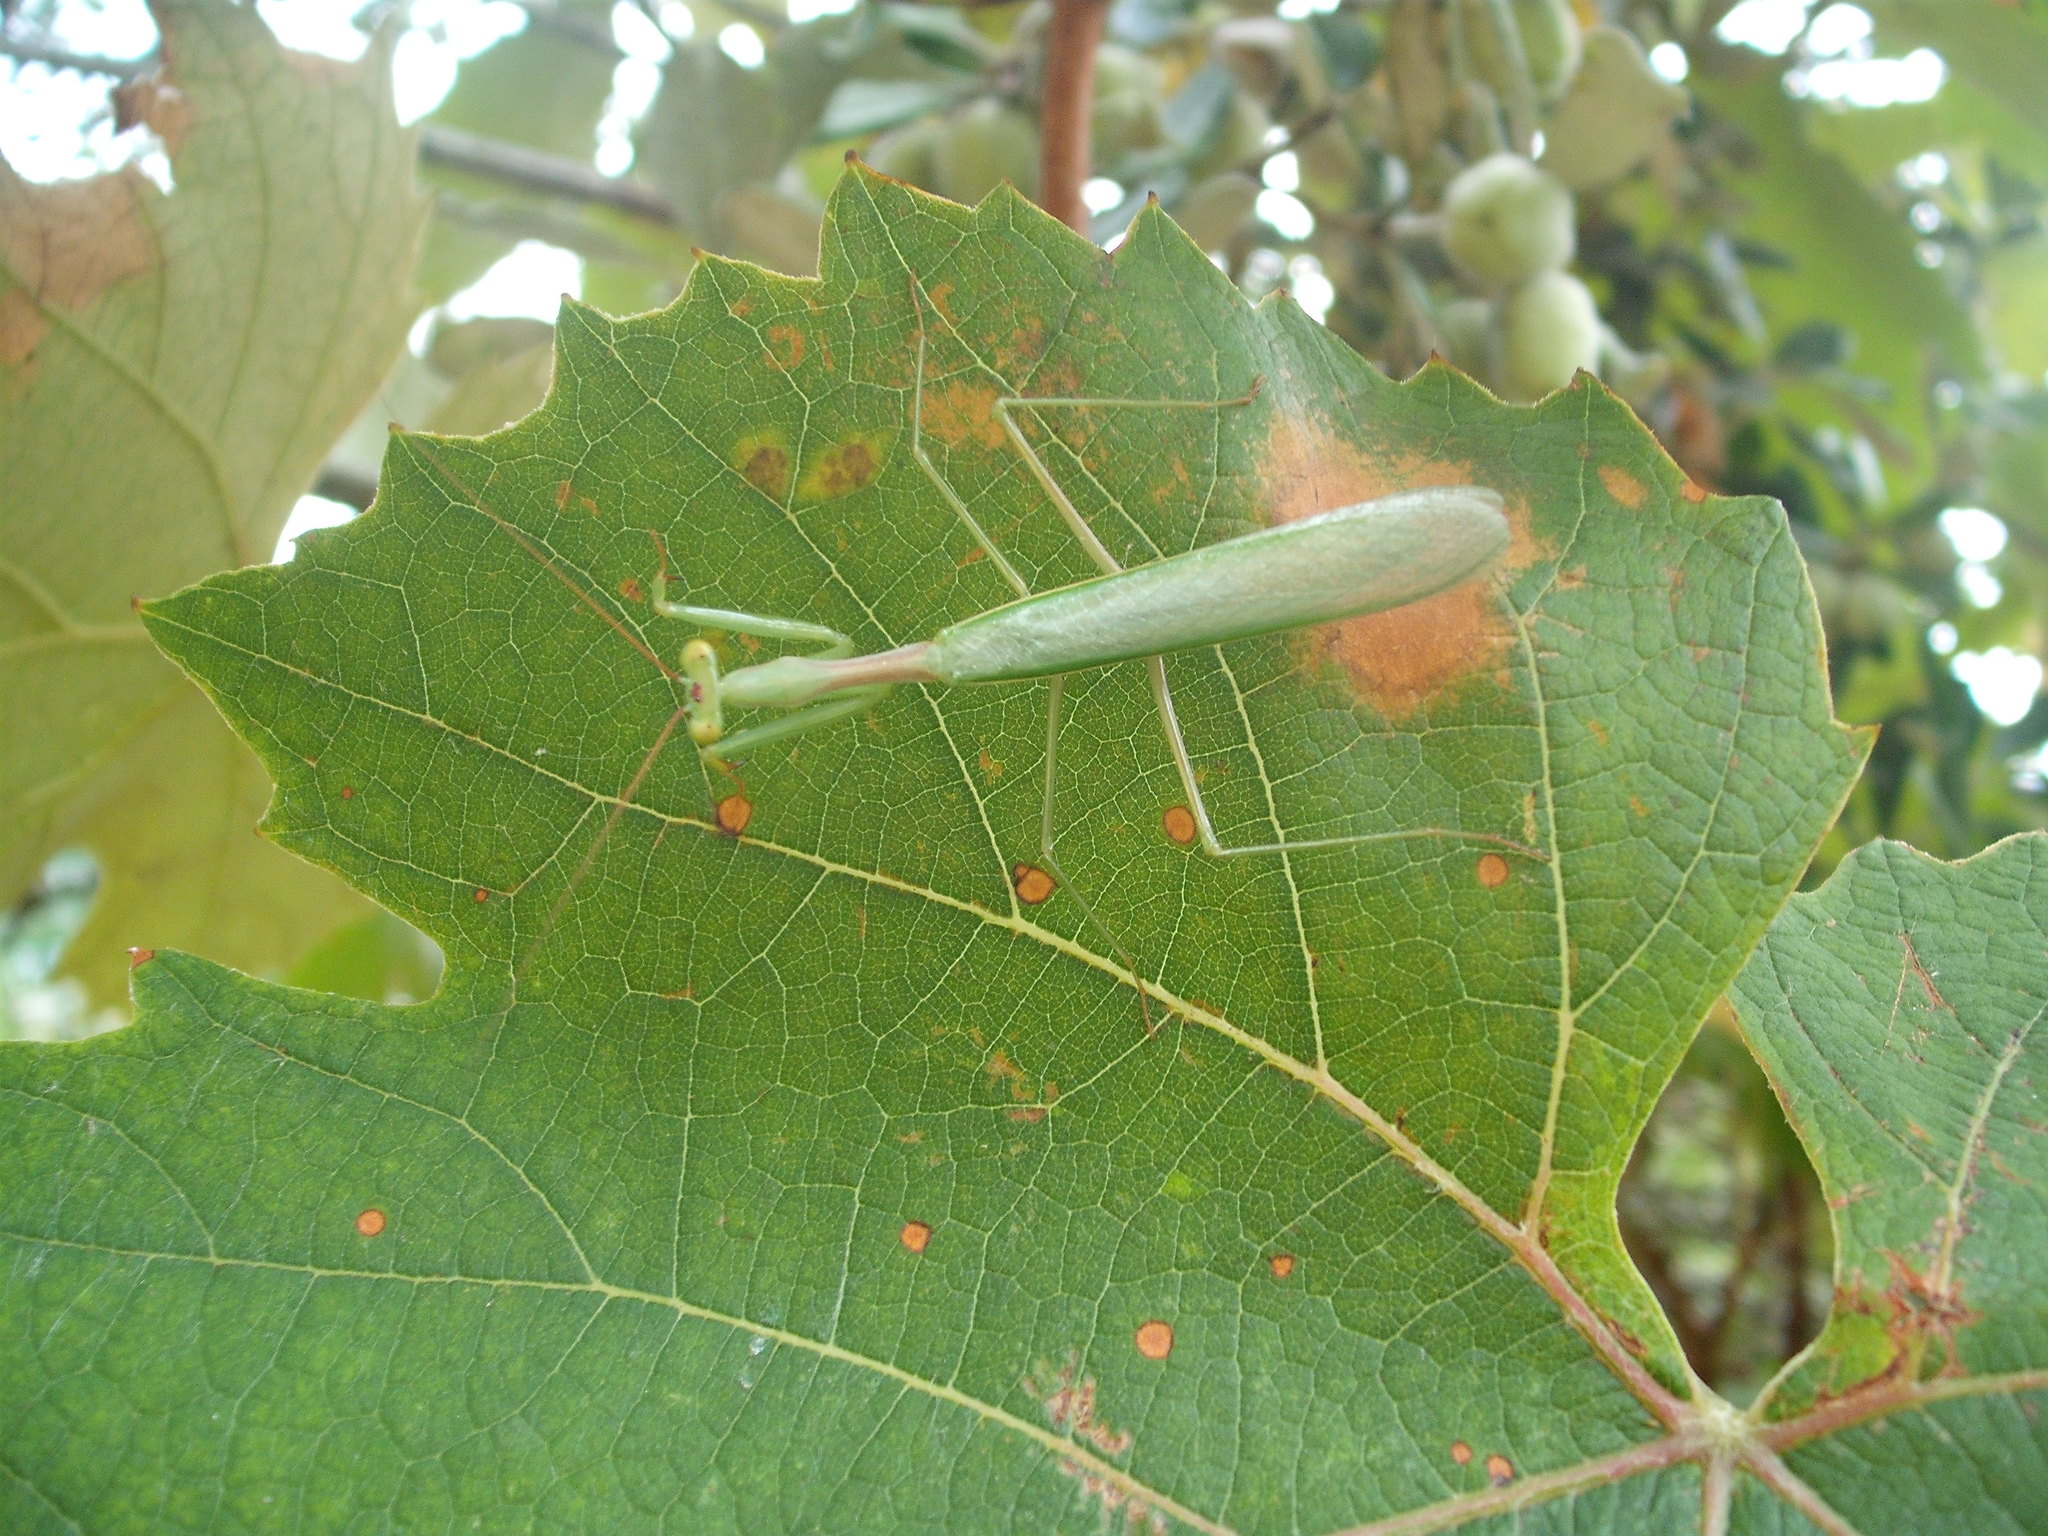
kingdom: Animalia
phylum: Arthropoda
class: Insecta
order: Mantodea
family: Miomantidae
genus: Miomantis
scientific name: Miomantis caffra
